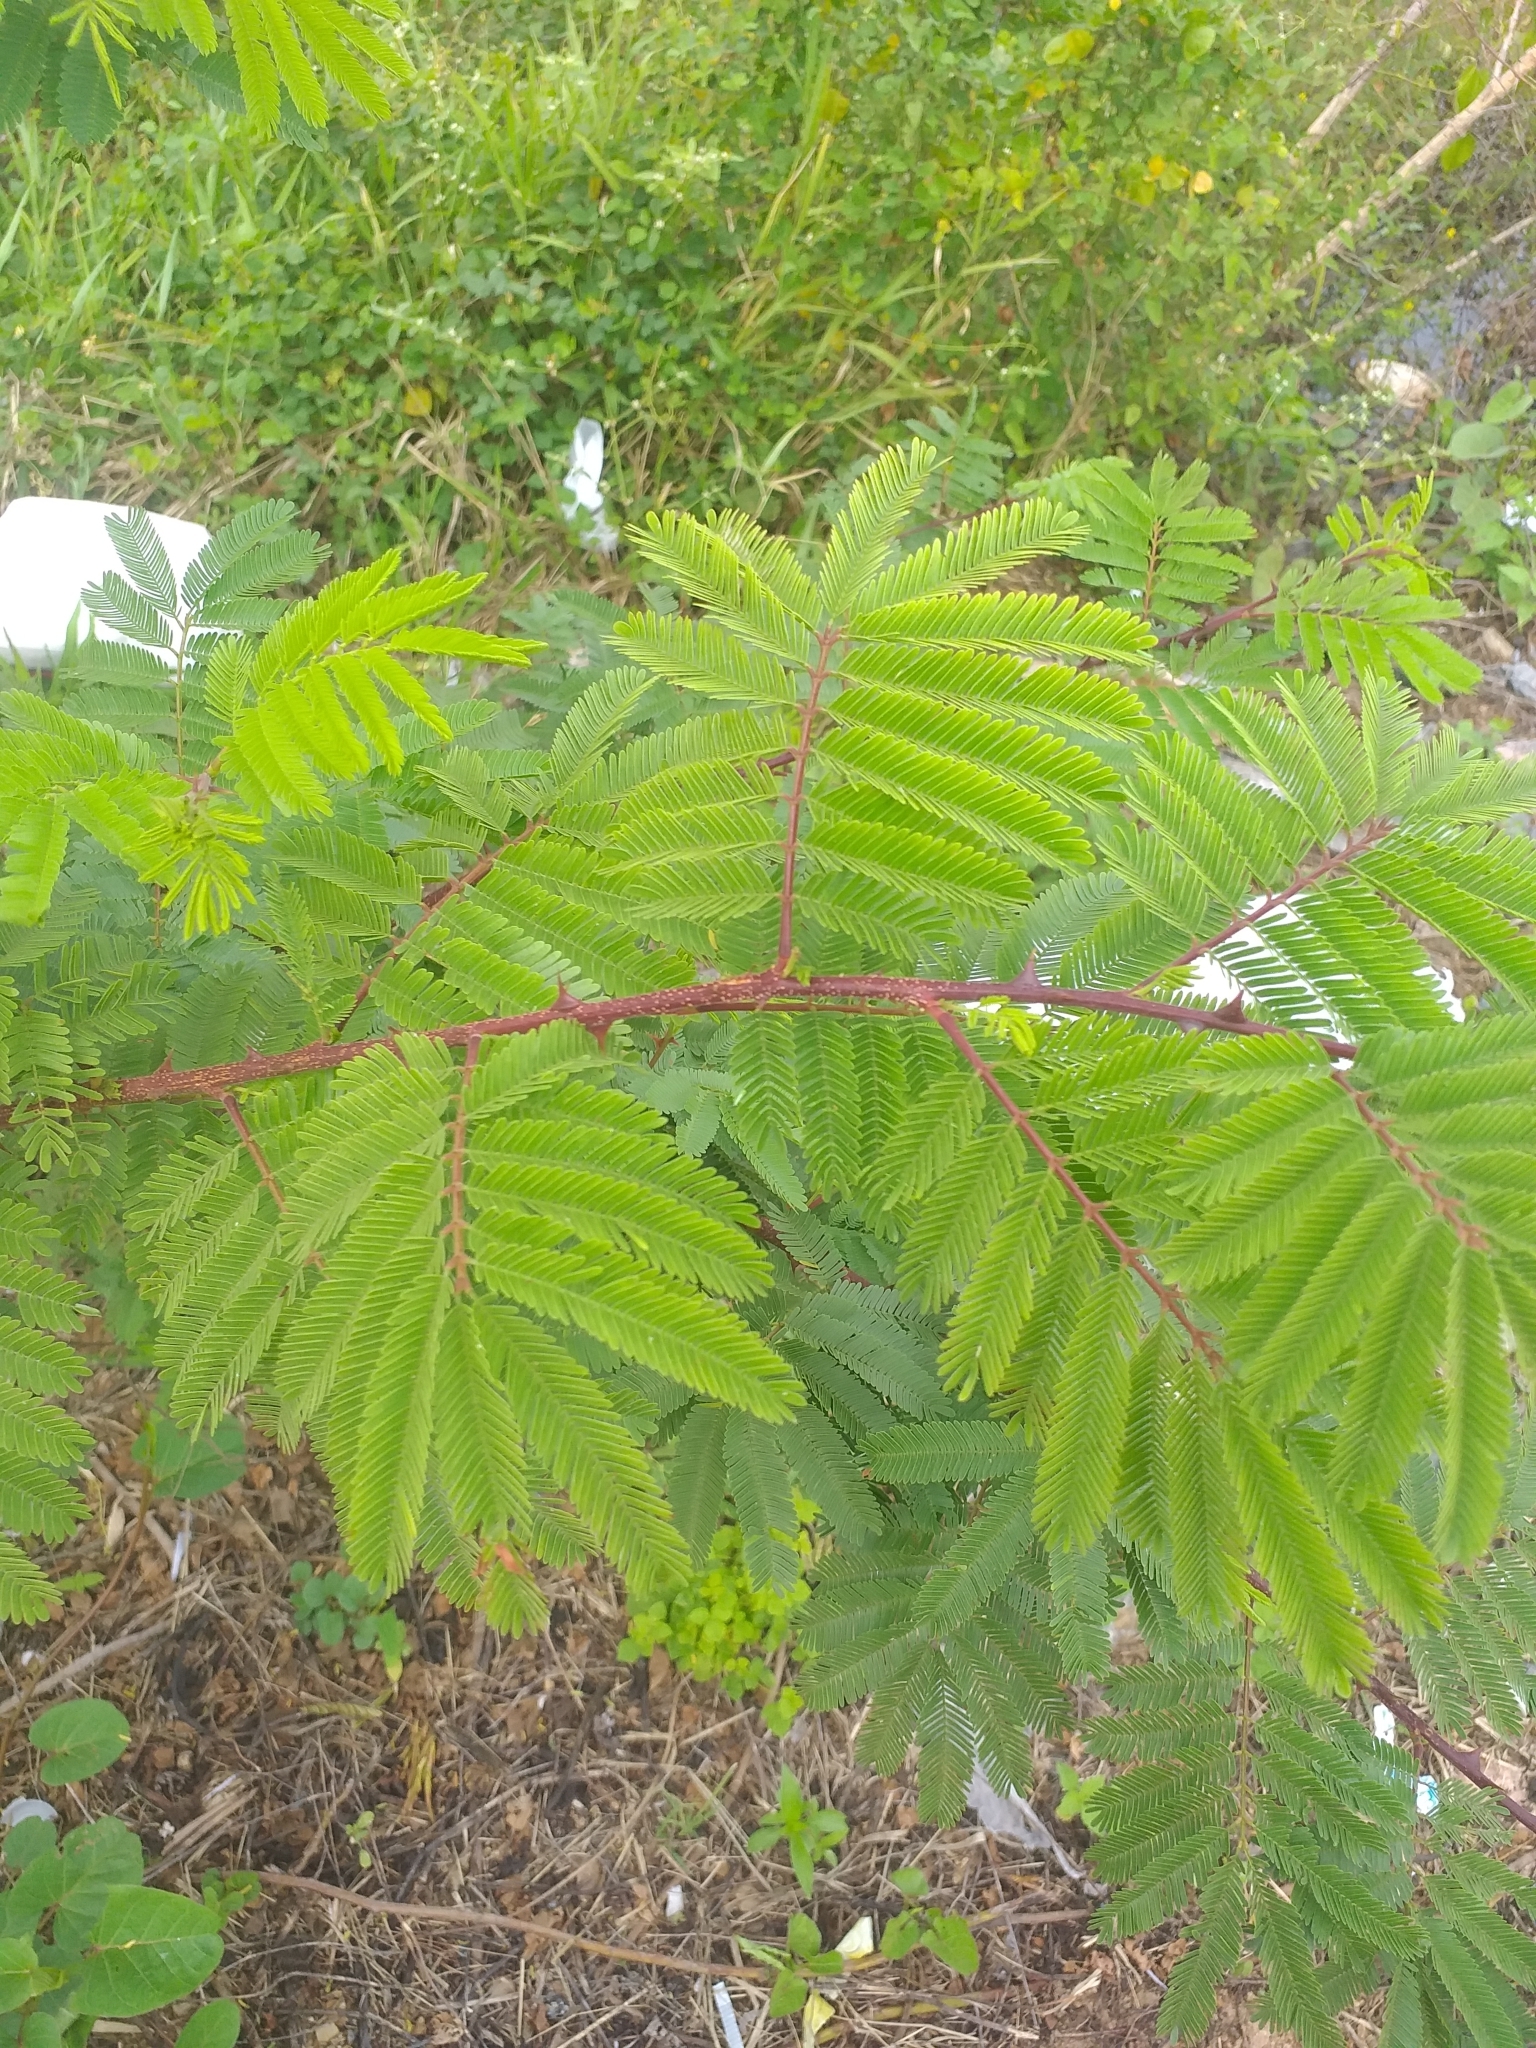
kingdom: Plantae
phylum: Tracheophyta
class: Magnoliopsida
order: Fabales
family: Fabaceae
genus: Mimosa
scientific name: Mimosa tenuiflora
